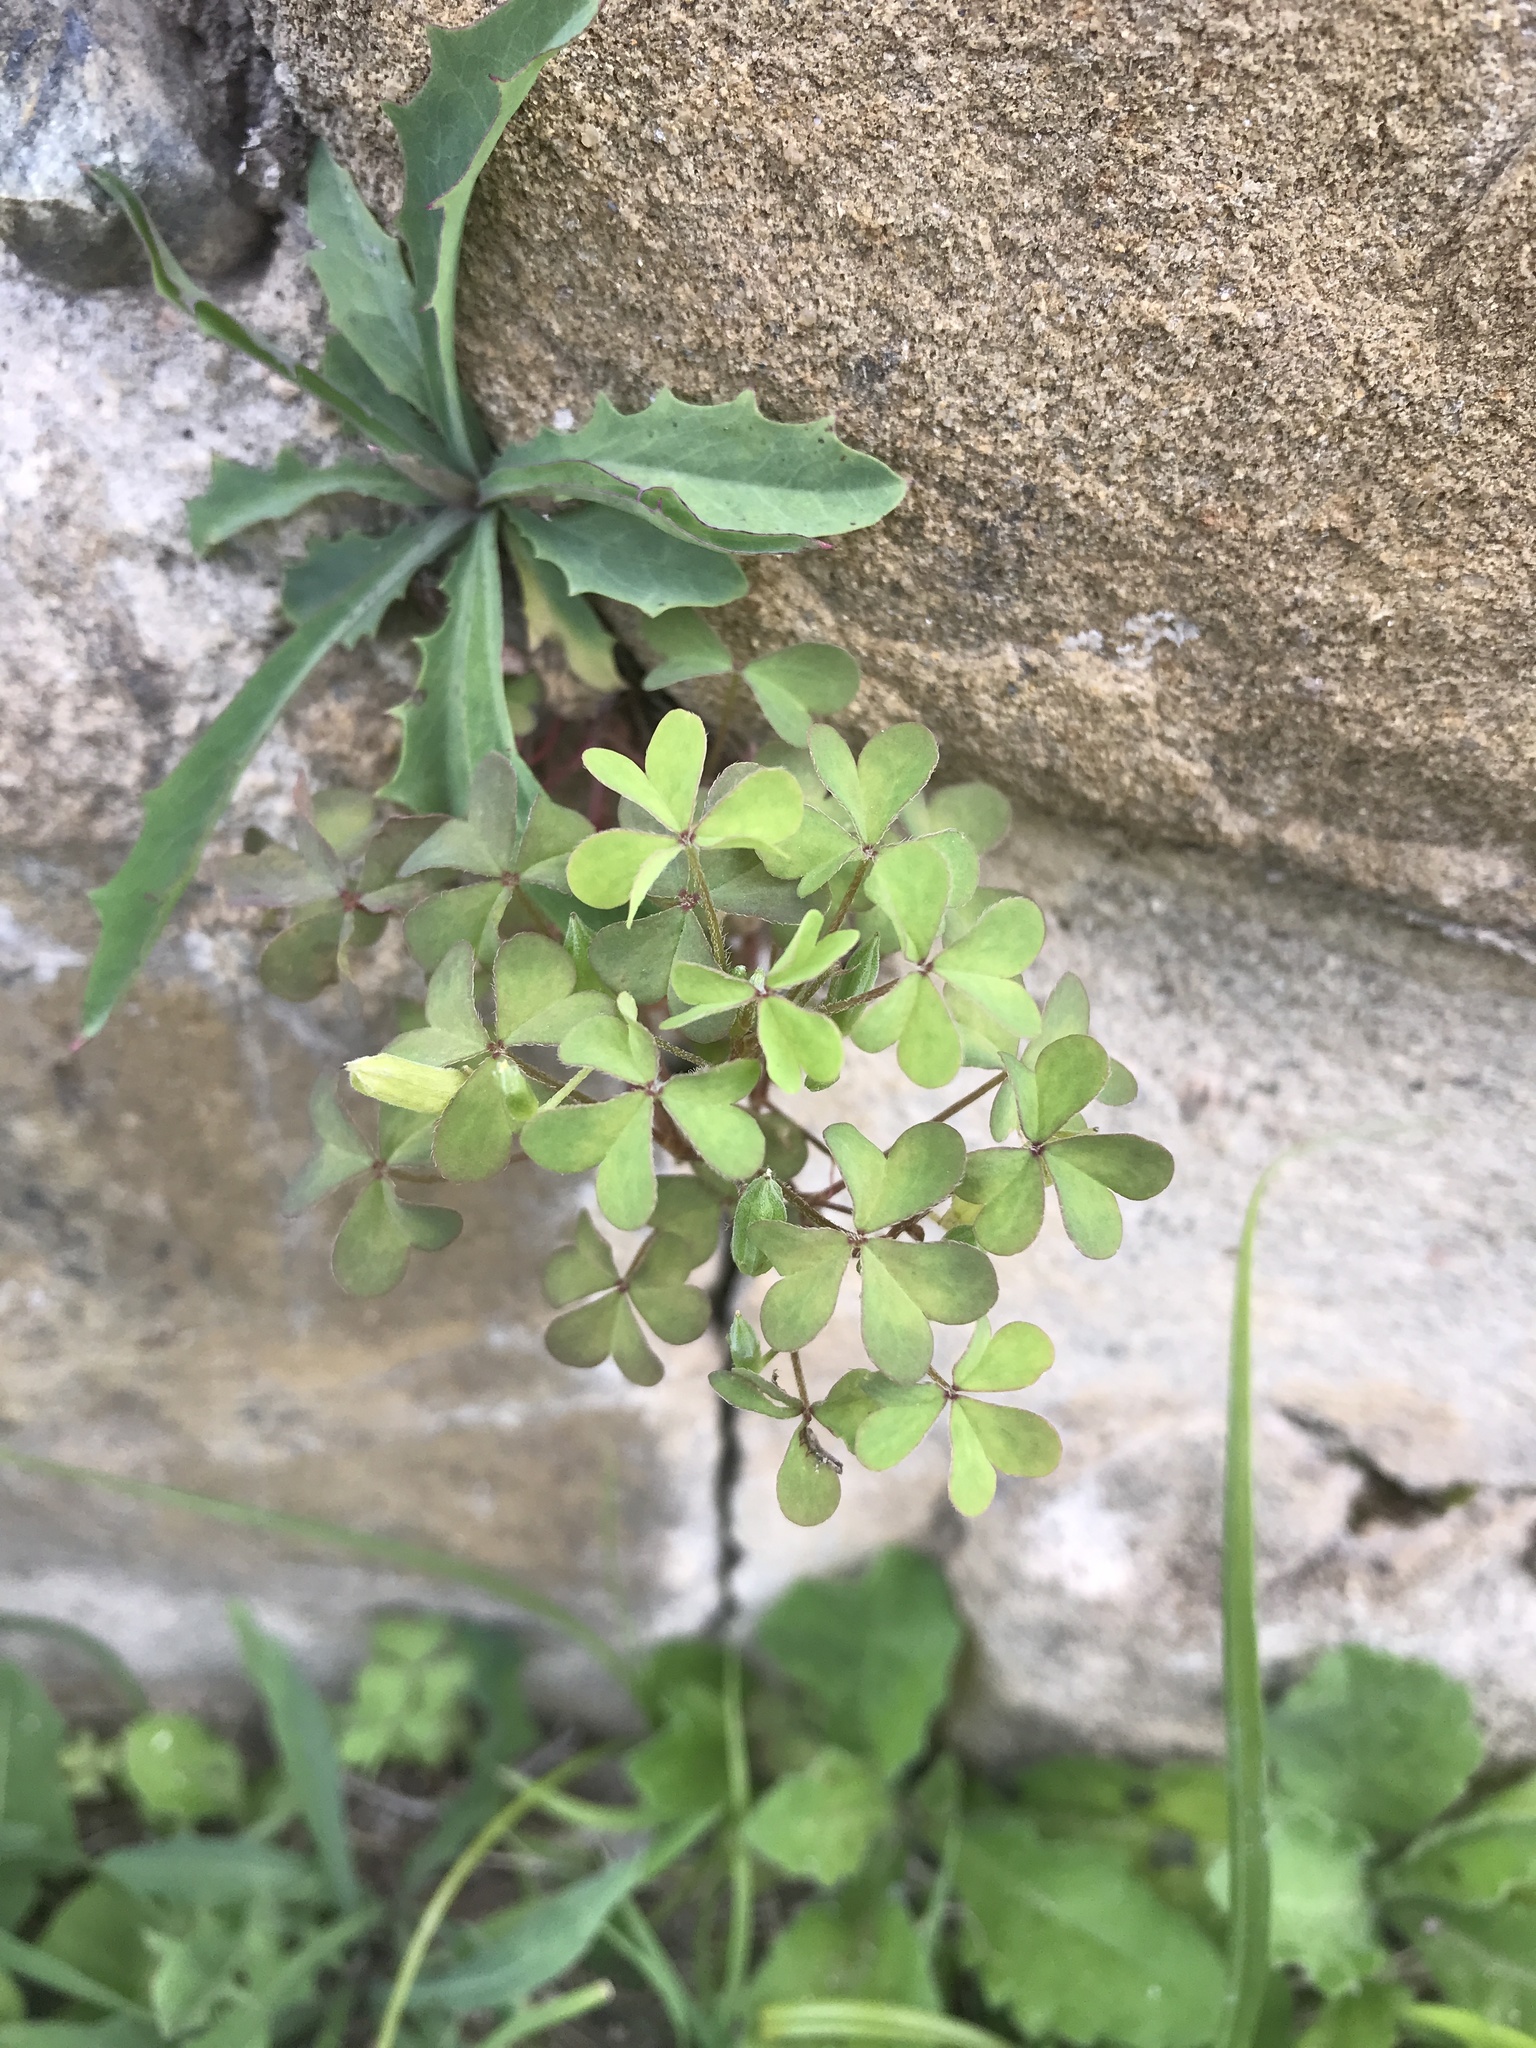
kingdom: Plantae
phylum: Tracheophyta
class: Magnoliopsida
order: Oxalidales
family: Oxalidaceae
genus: Oxalis
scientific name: Oxalis corniculata
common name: Procumbent yellow-sorrel
